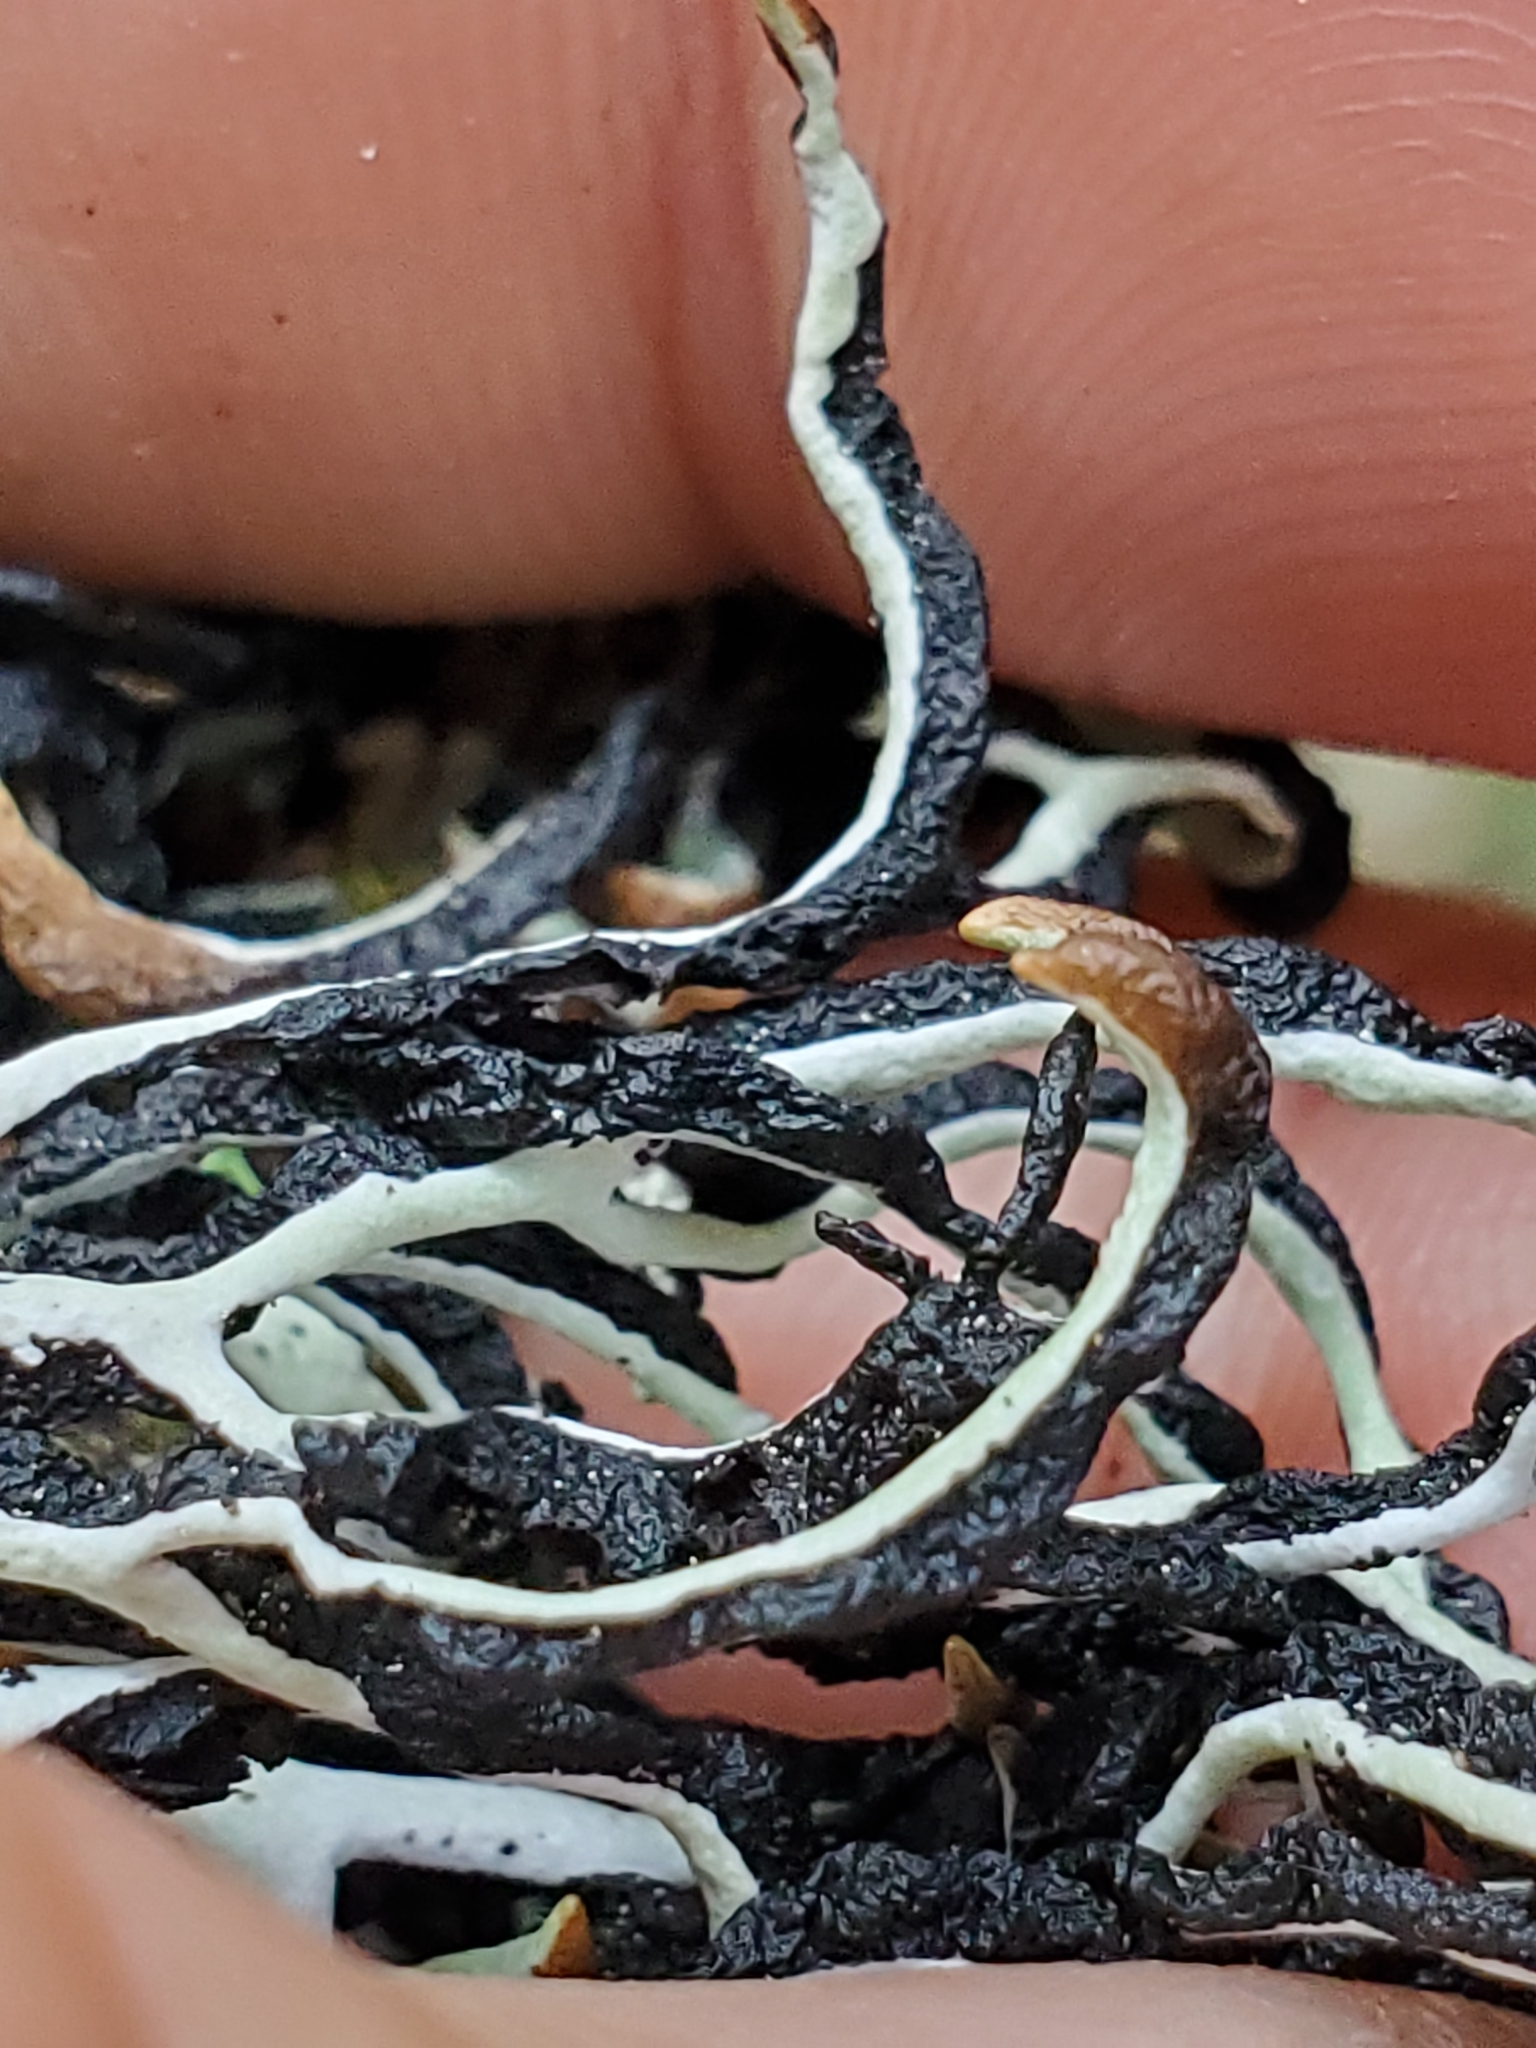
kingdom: Fungi
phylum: Ascomycota
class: Lecanoromycetes
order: Lecanorales
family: Parmeliaceae
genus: Hypogymnia
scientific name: Hypogymnia duplicata
